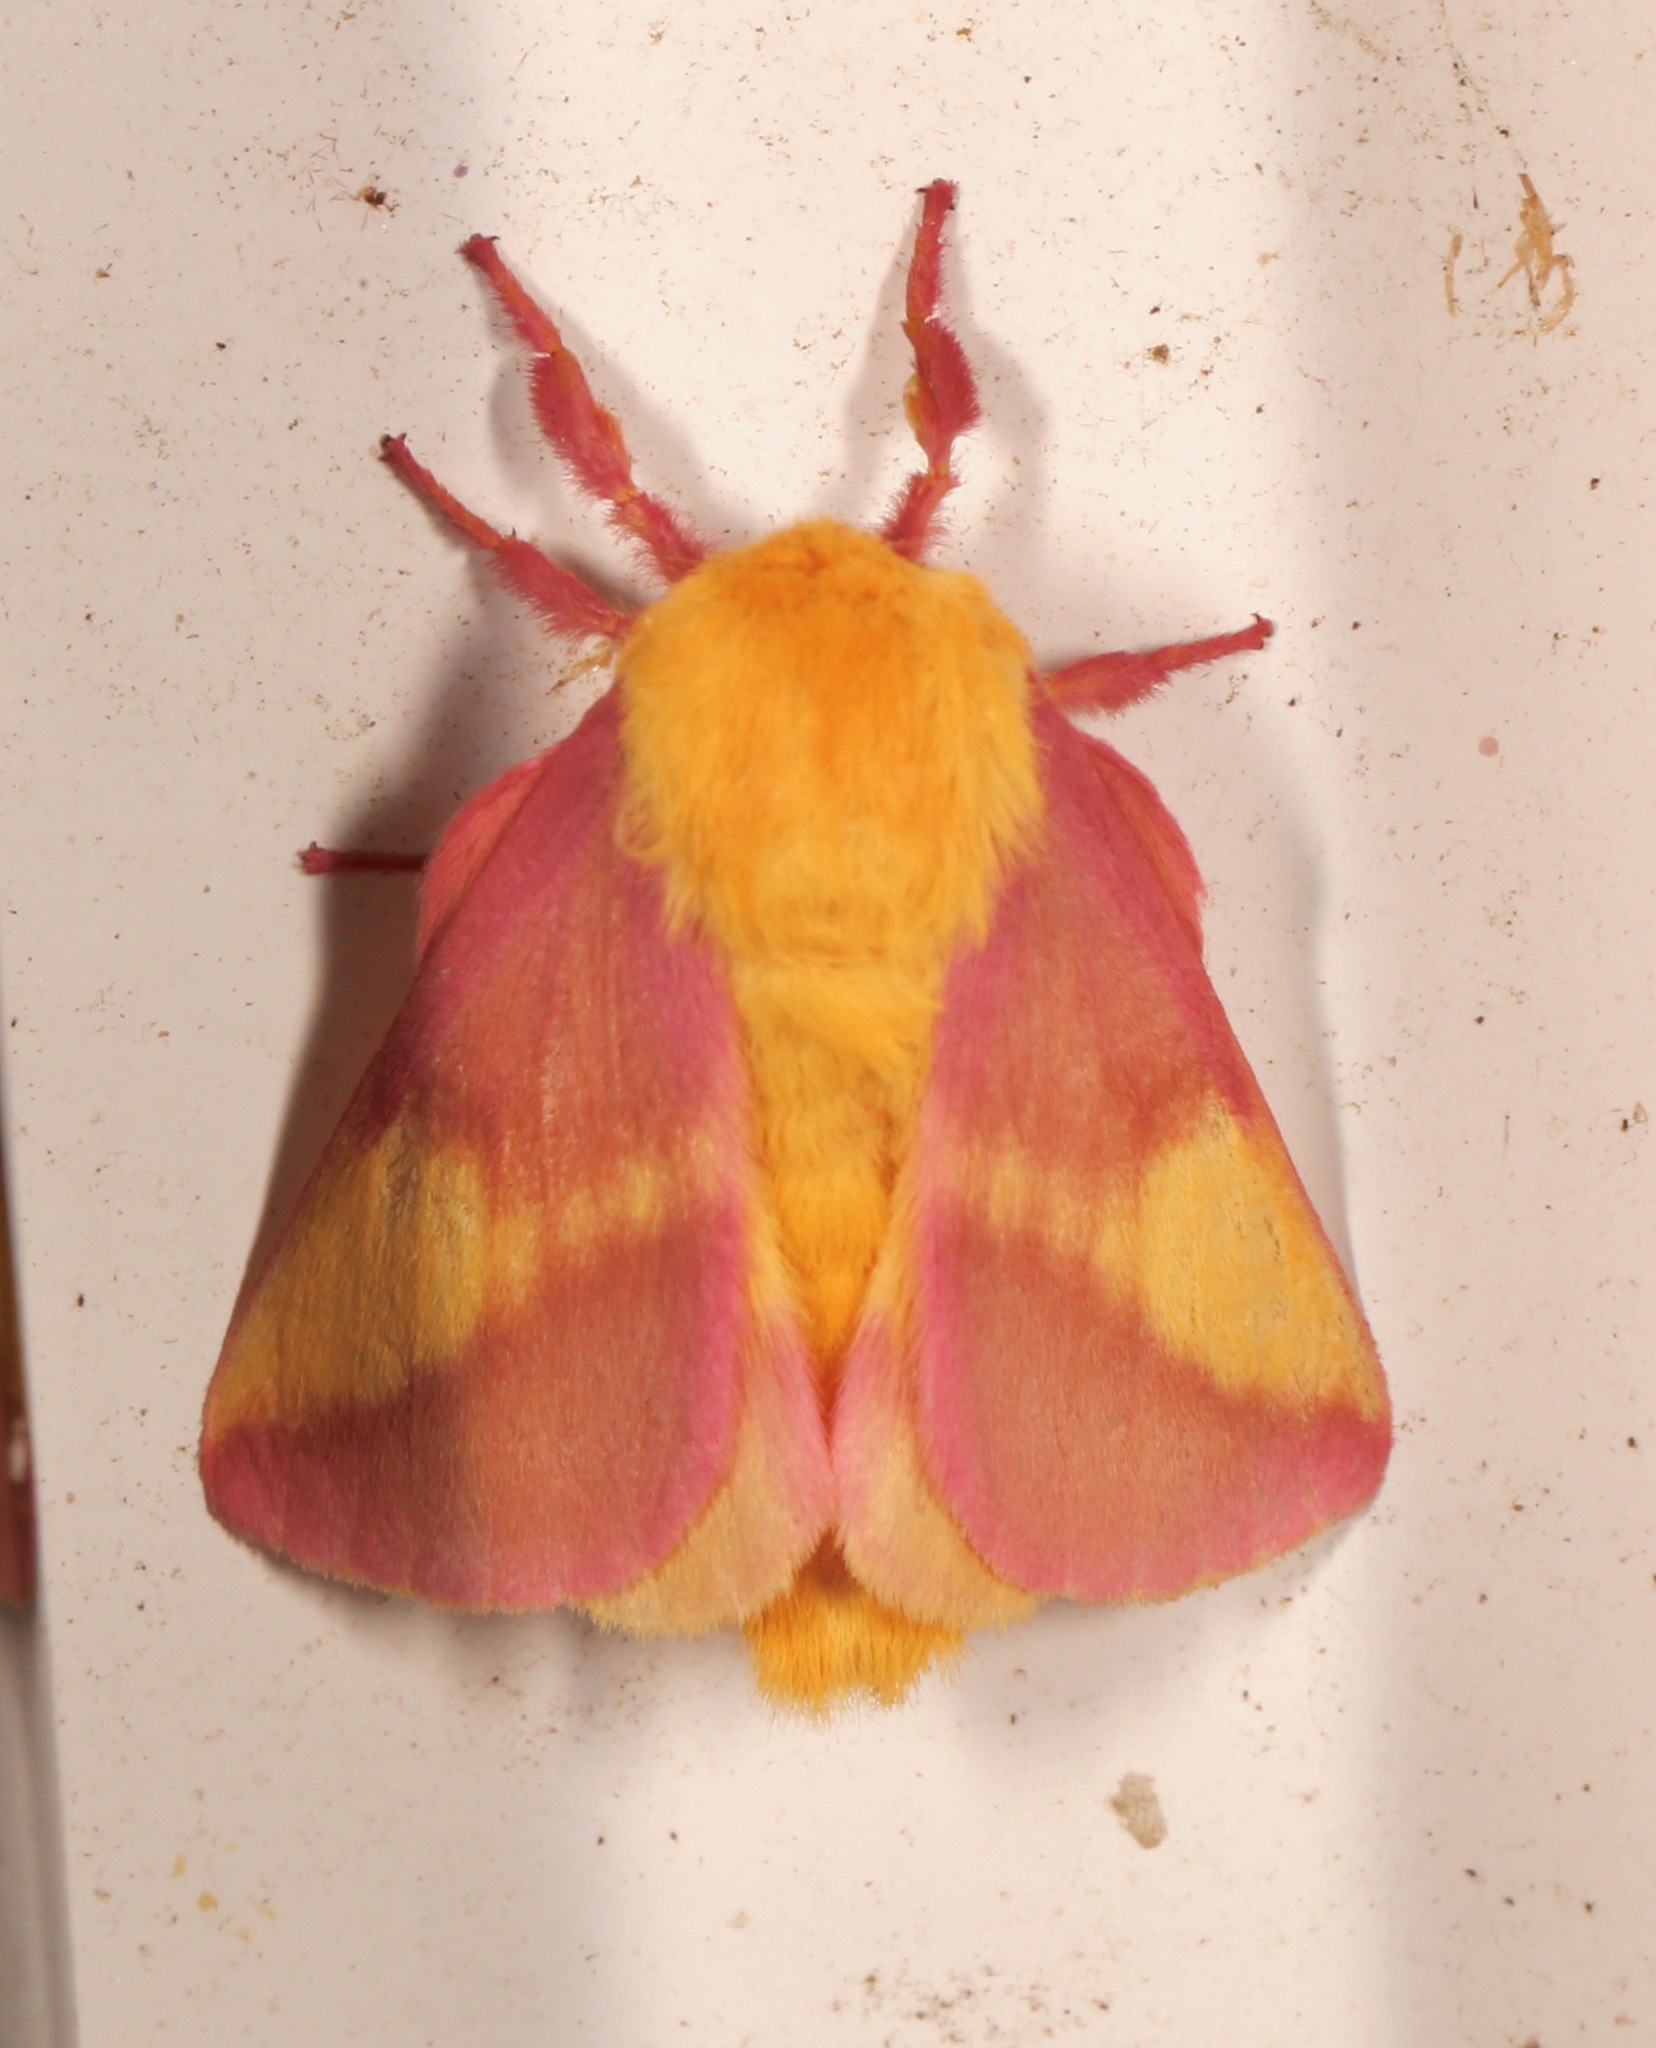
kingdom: Animalia
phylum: Arthropoda
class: Insecta
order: Lepidoptera
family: Saturniidae
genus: Dryocampa
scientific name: Dryocampa rubicunda
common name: Rosy maple moth
